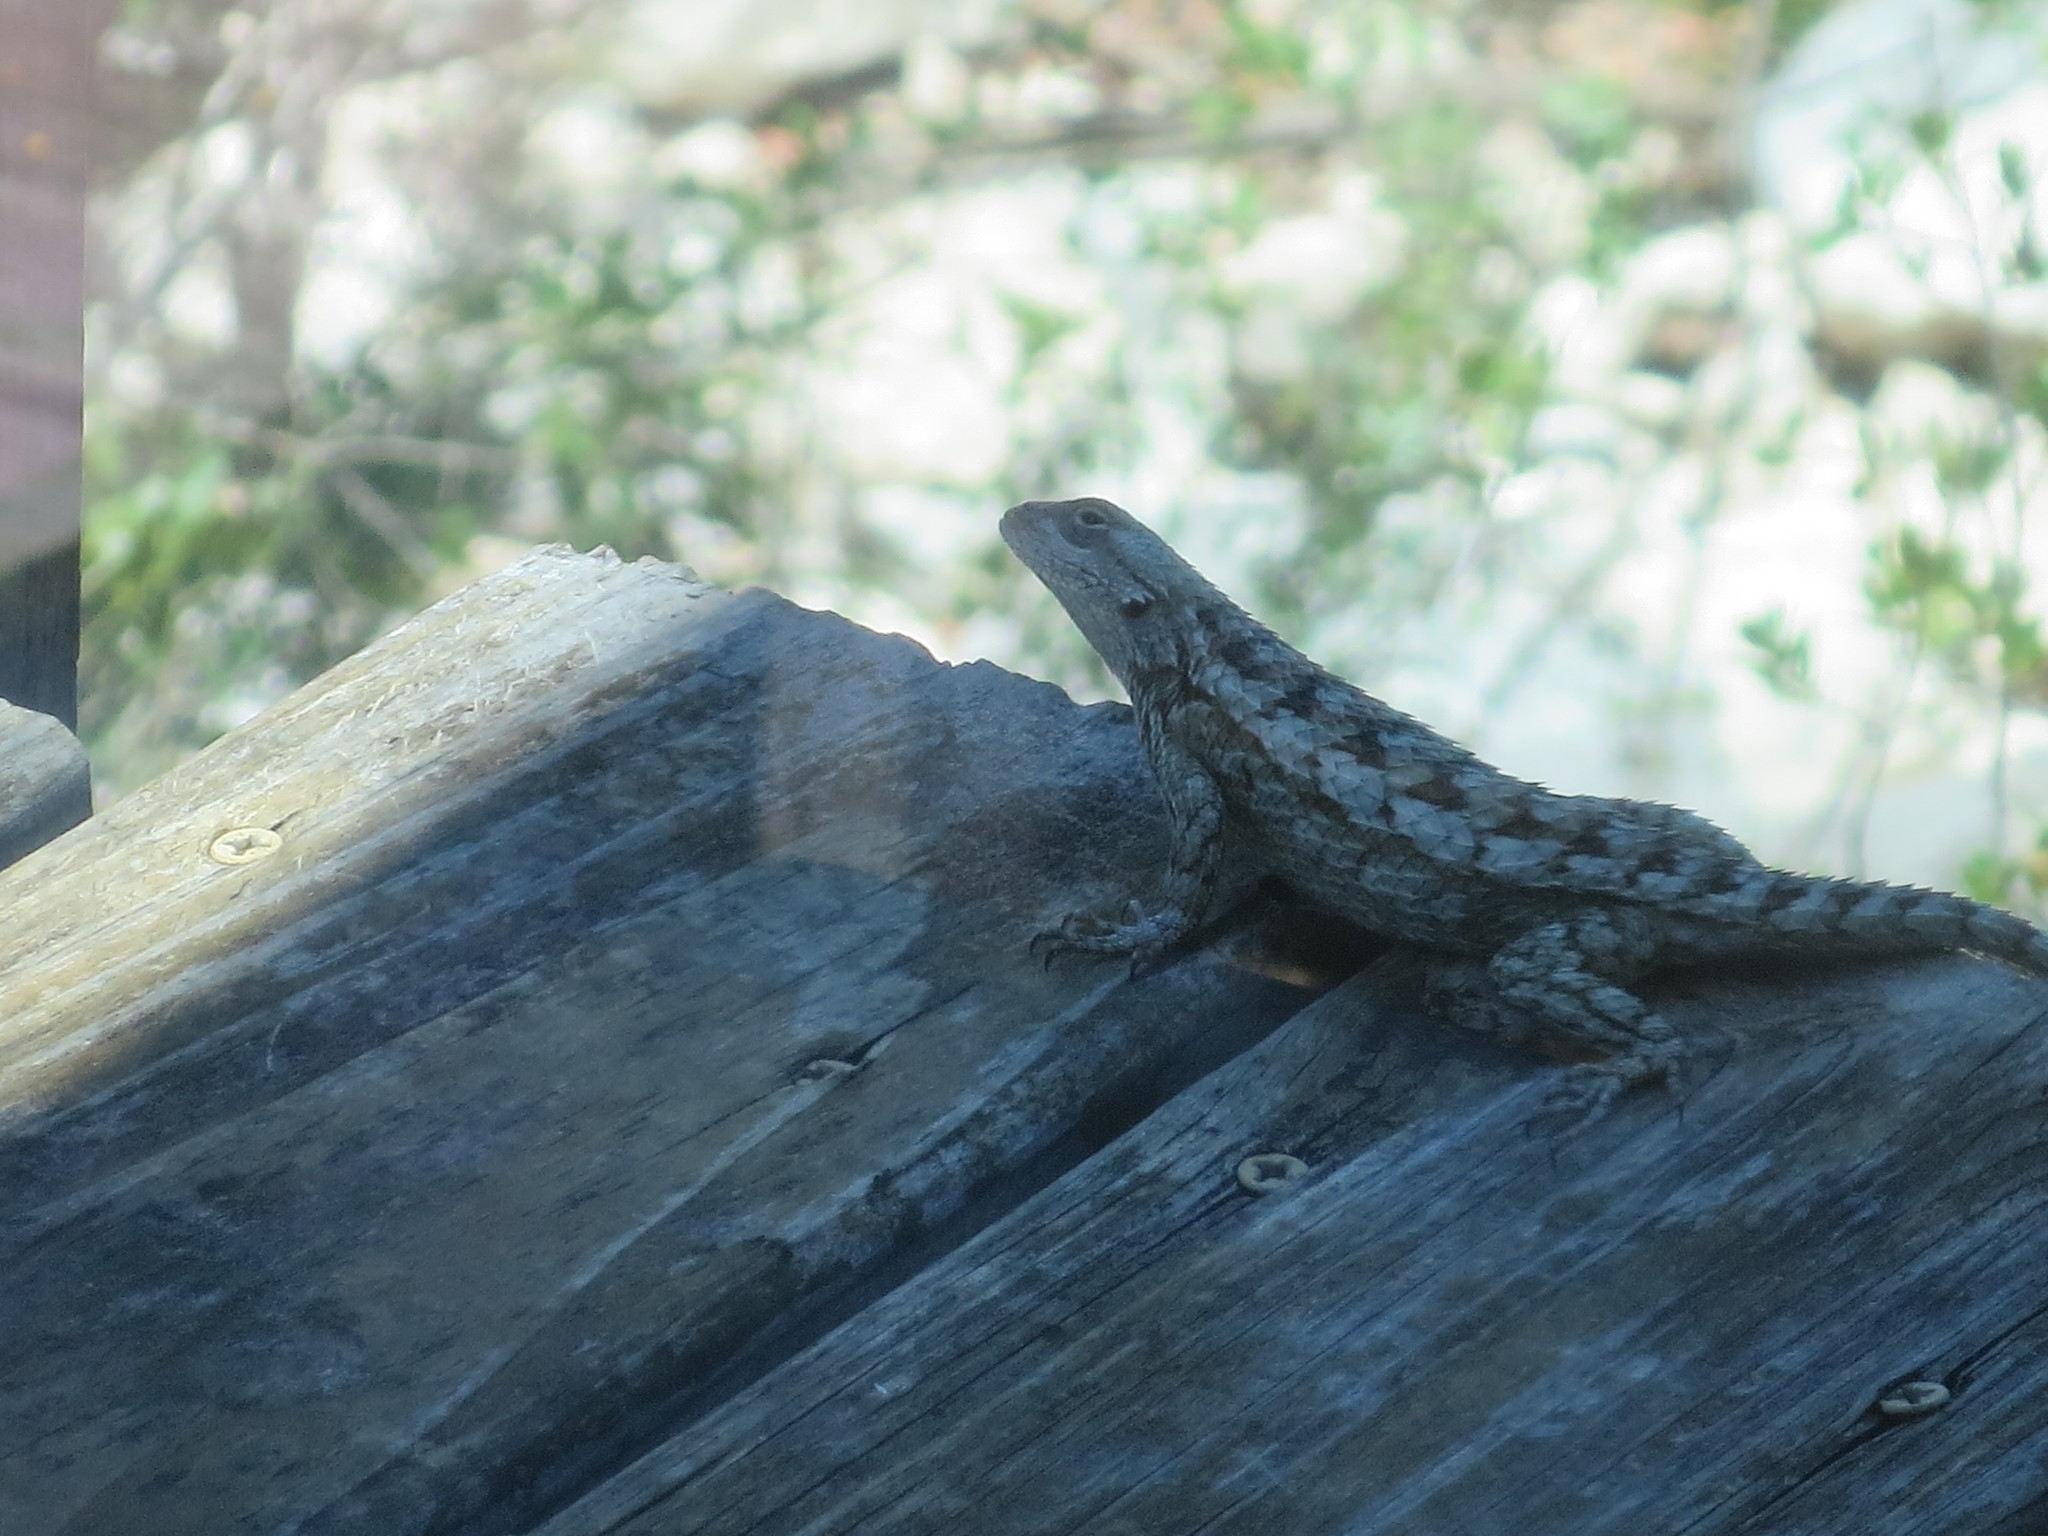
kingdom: Animalia
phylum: Chordata
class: Squamata
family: Phrynosomatidae
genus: Sceloporus
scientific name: Sceloporus olivaceus
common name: Texas spiny lizard
